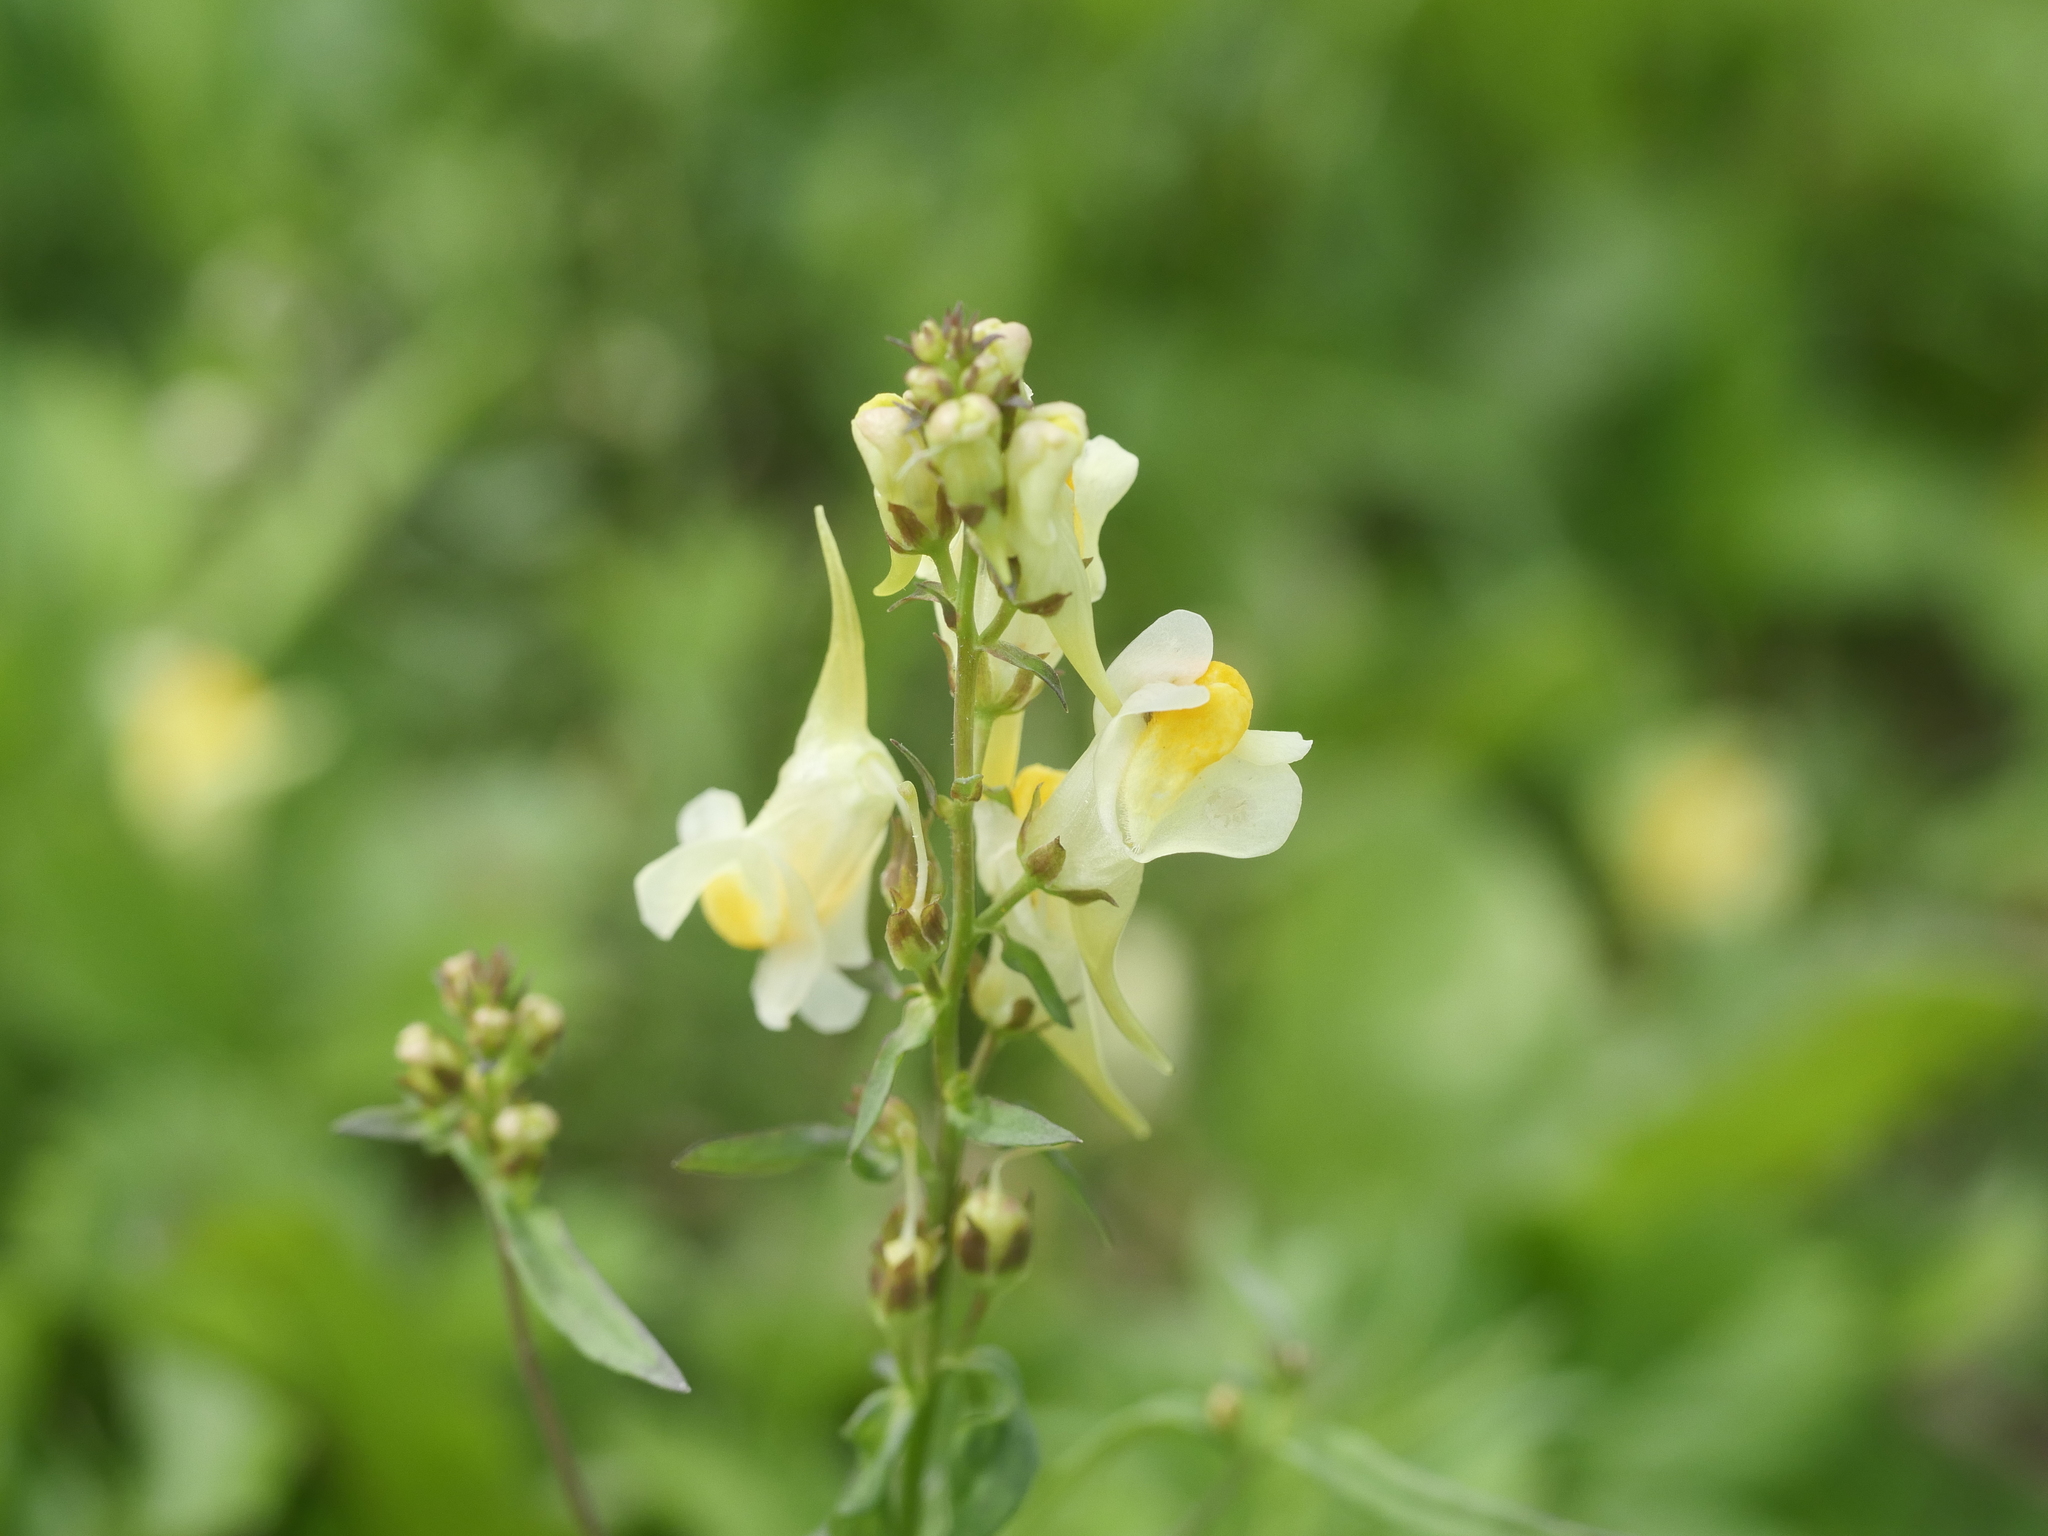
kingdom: Plantae
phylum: Tracheophyta
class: Magnoliopsida
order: Lamiales
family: Plantaginaceae
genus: Linaria
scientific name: Linaria vulgaris
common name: Butter and eggs
